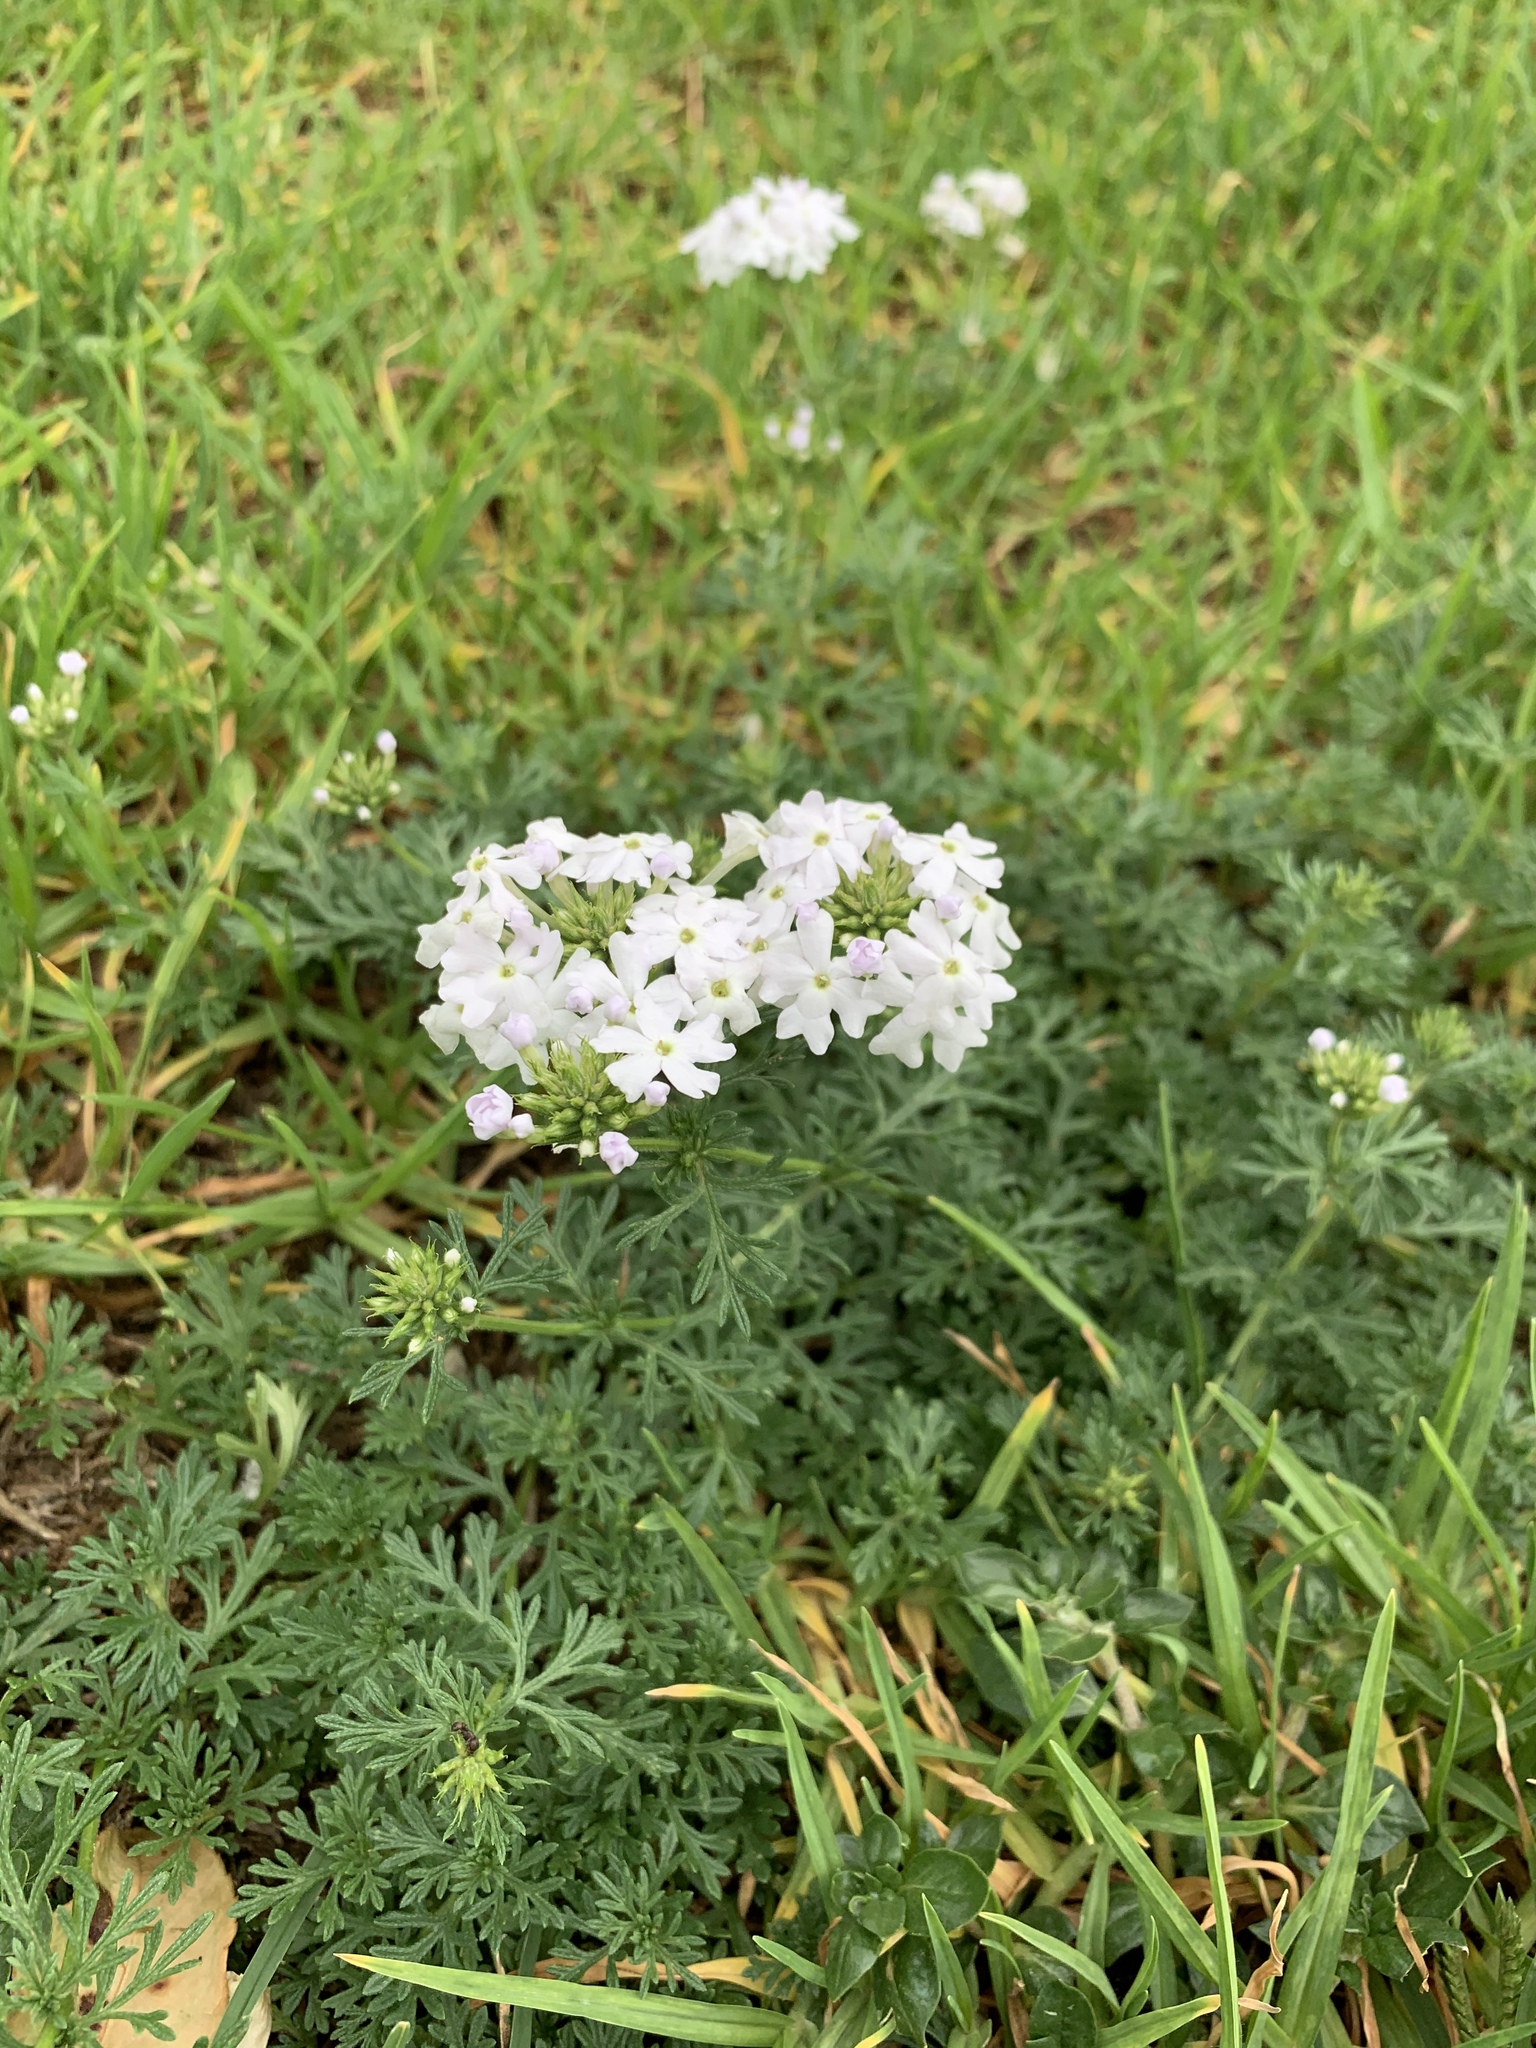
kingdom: Plantae
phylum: Tracheophyta
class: Magnoliopsida
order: Lamiales
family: Verbenaceae
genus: Verbena
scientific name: Verbena aristigera
